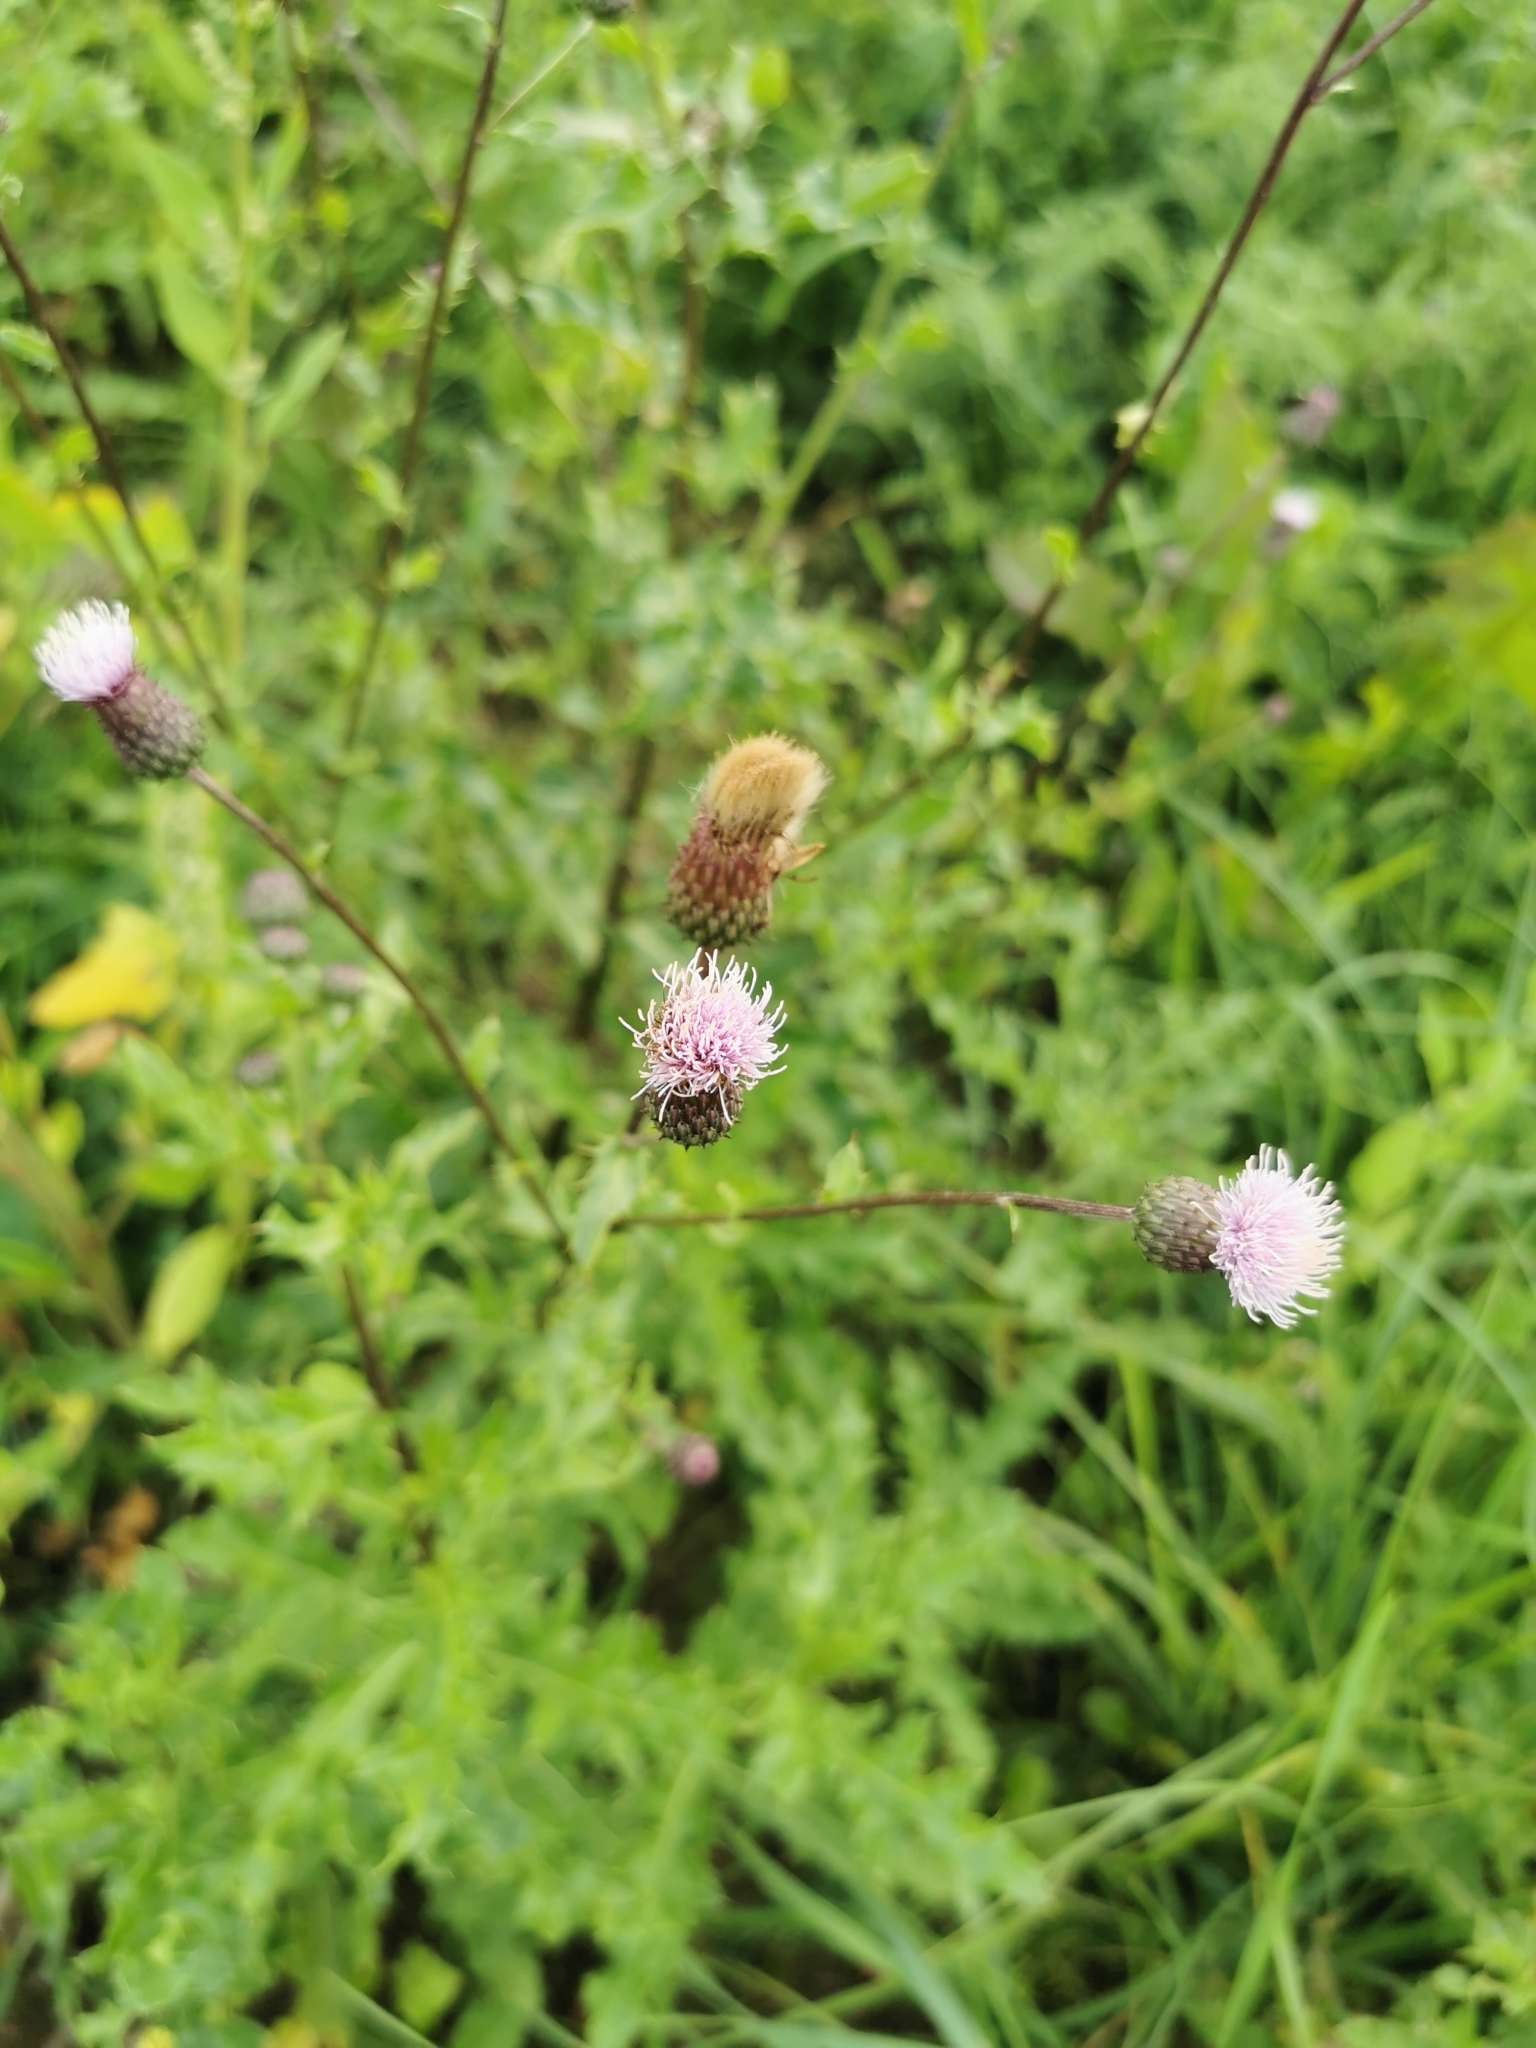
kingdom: Plantae
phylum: Tracheophyta
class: Magnoliopsida
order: Asterales
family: Asteraceae
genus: Cirsium
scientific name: Cirsium arvense
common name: Creeping thistle
